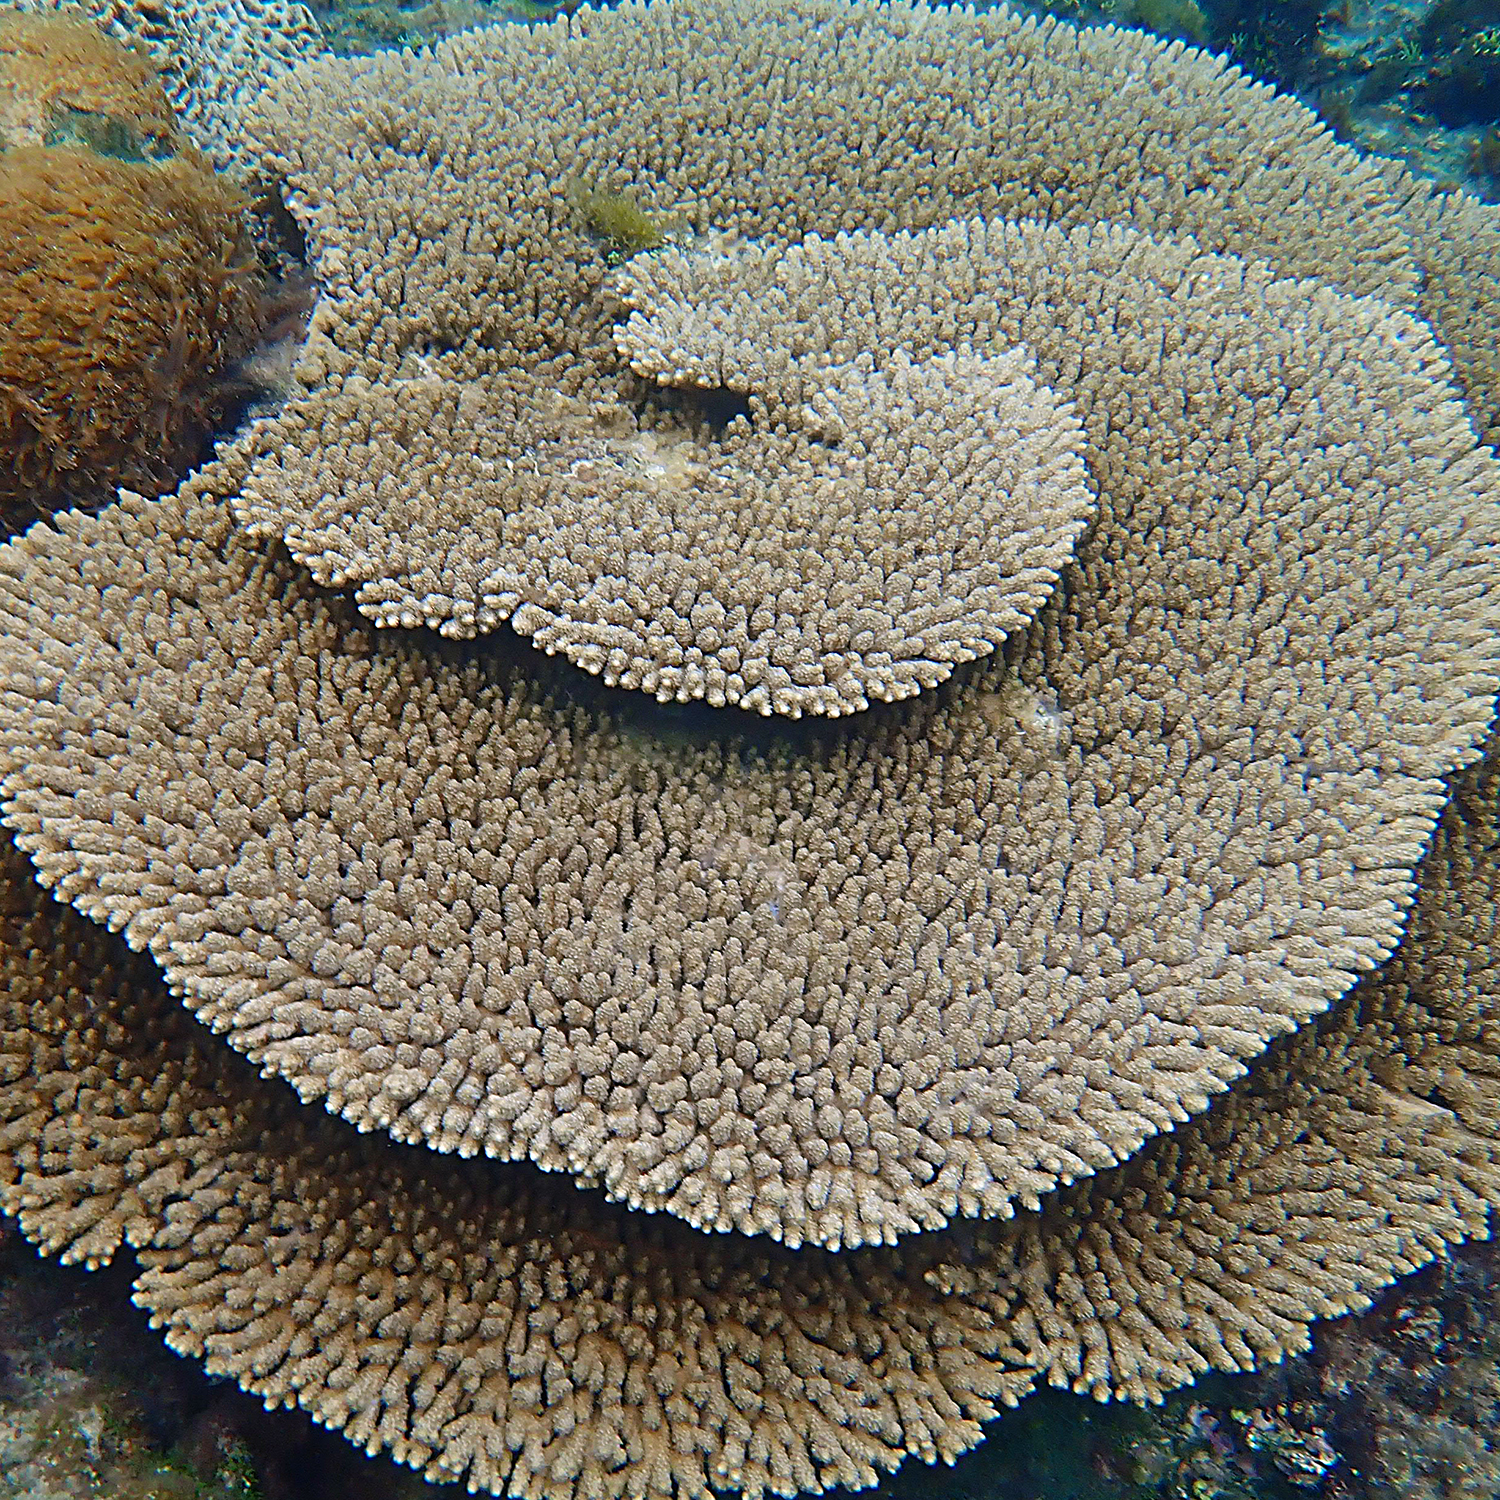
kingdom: Animalia
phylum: Cnidaria
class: Anthozoa
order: Scleractinia
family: Acroporidae
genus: Acropora
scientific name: Acropora solitaryensis
